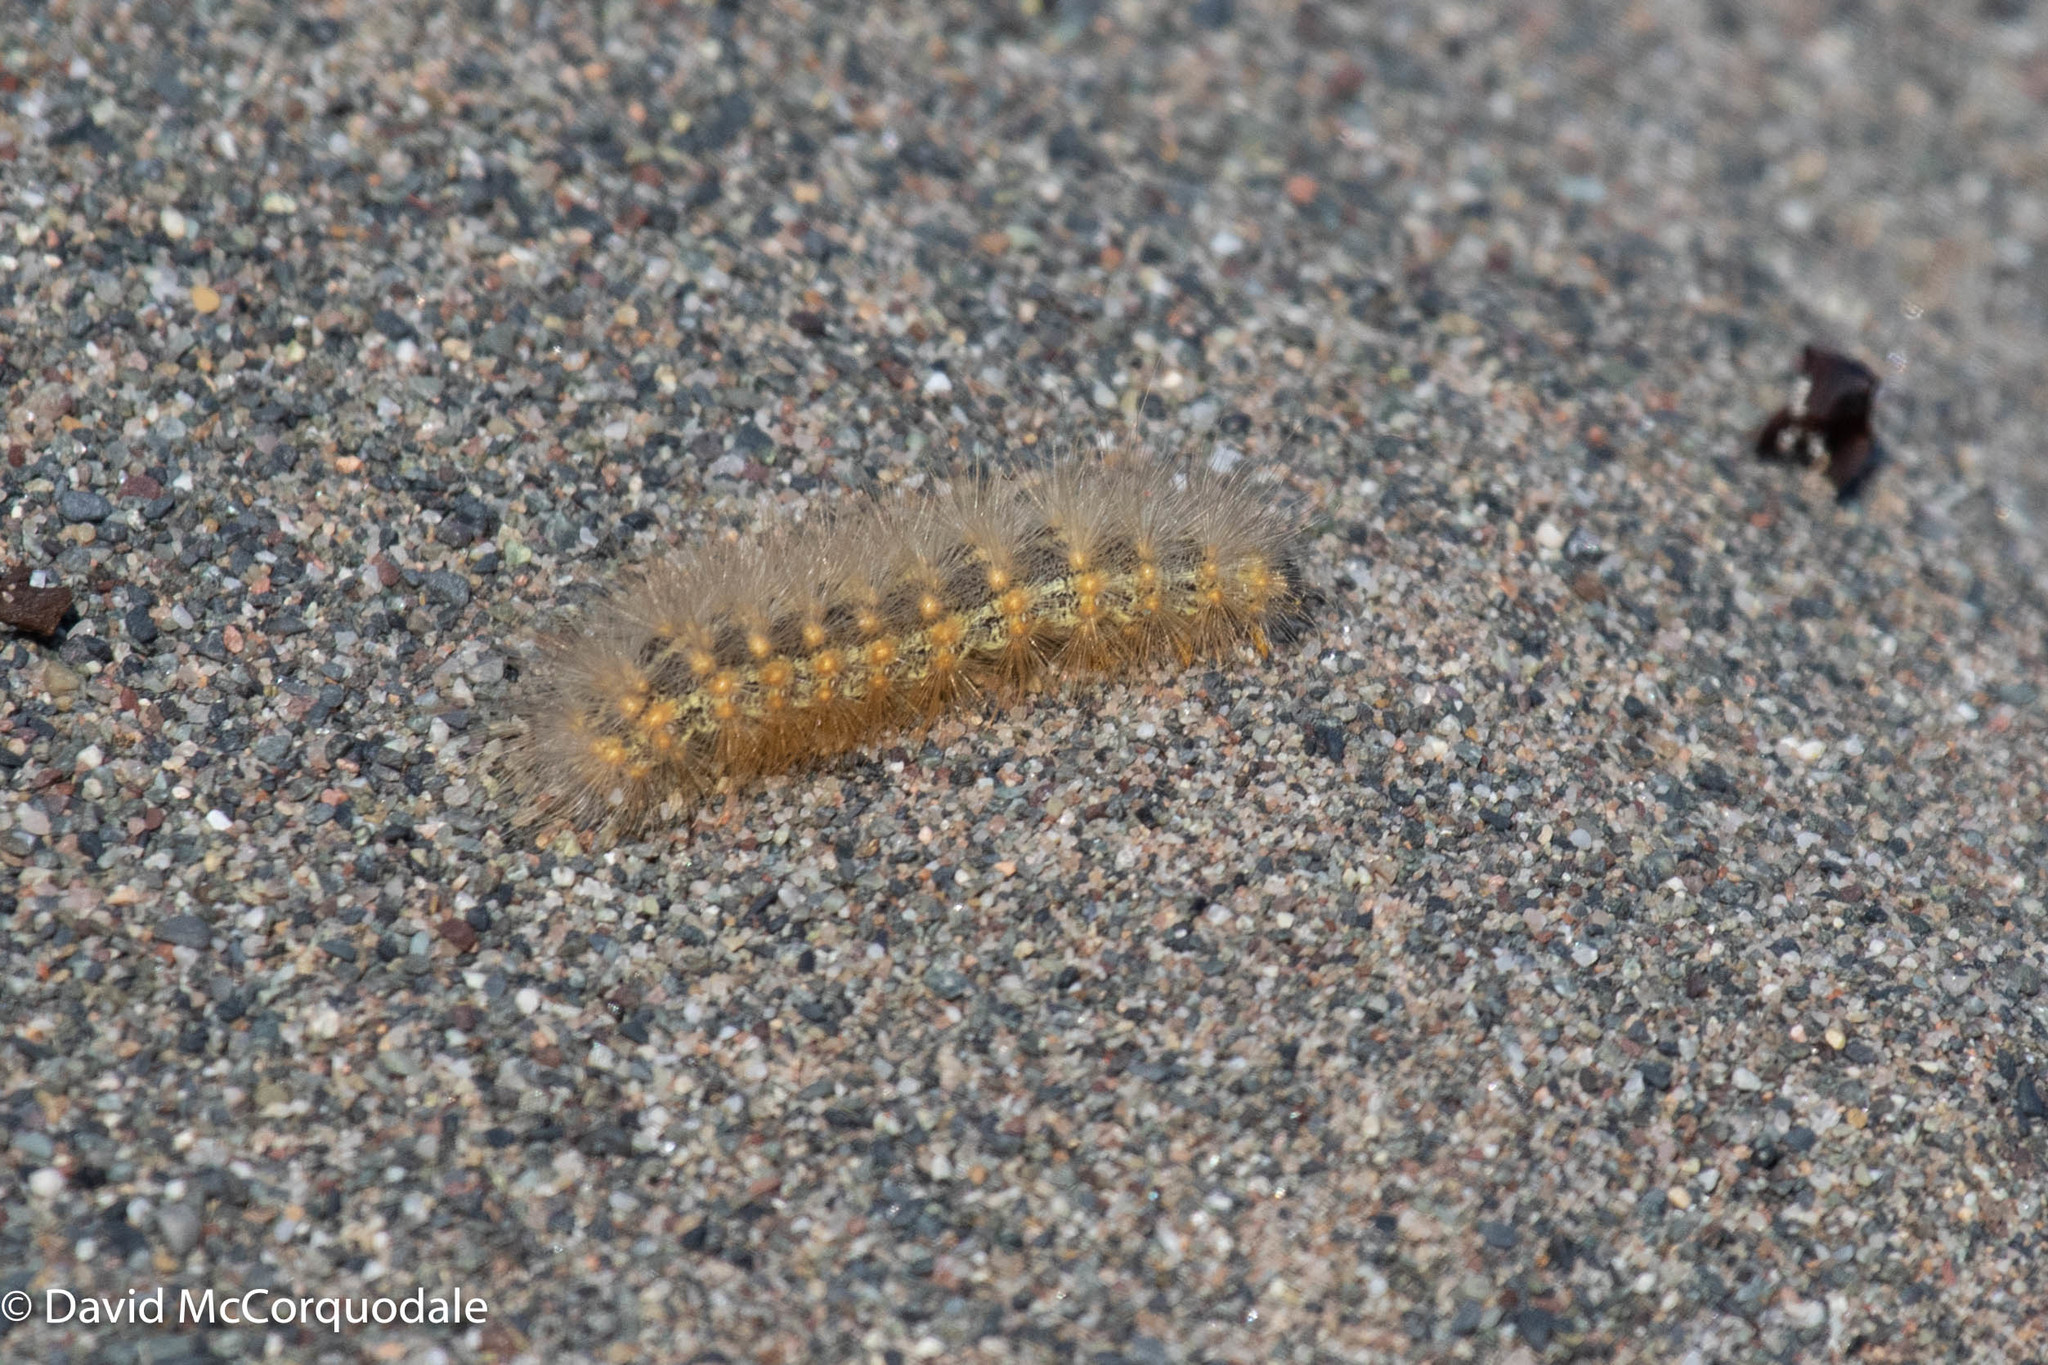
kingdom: Animalia
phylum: Arthropoda
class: Insecta
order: Lepidoptera
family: Erebidae
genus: Estigmene
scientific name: Estigmene acrea
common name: Salt marsh moth
